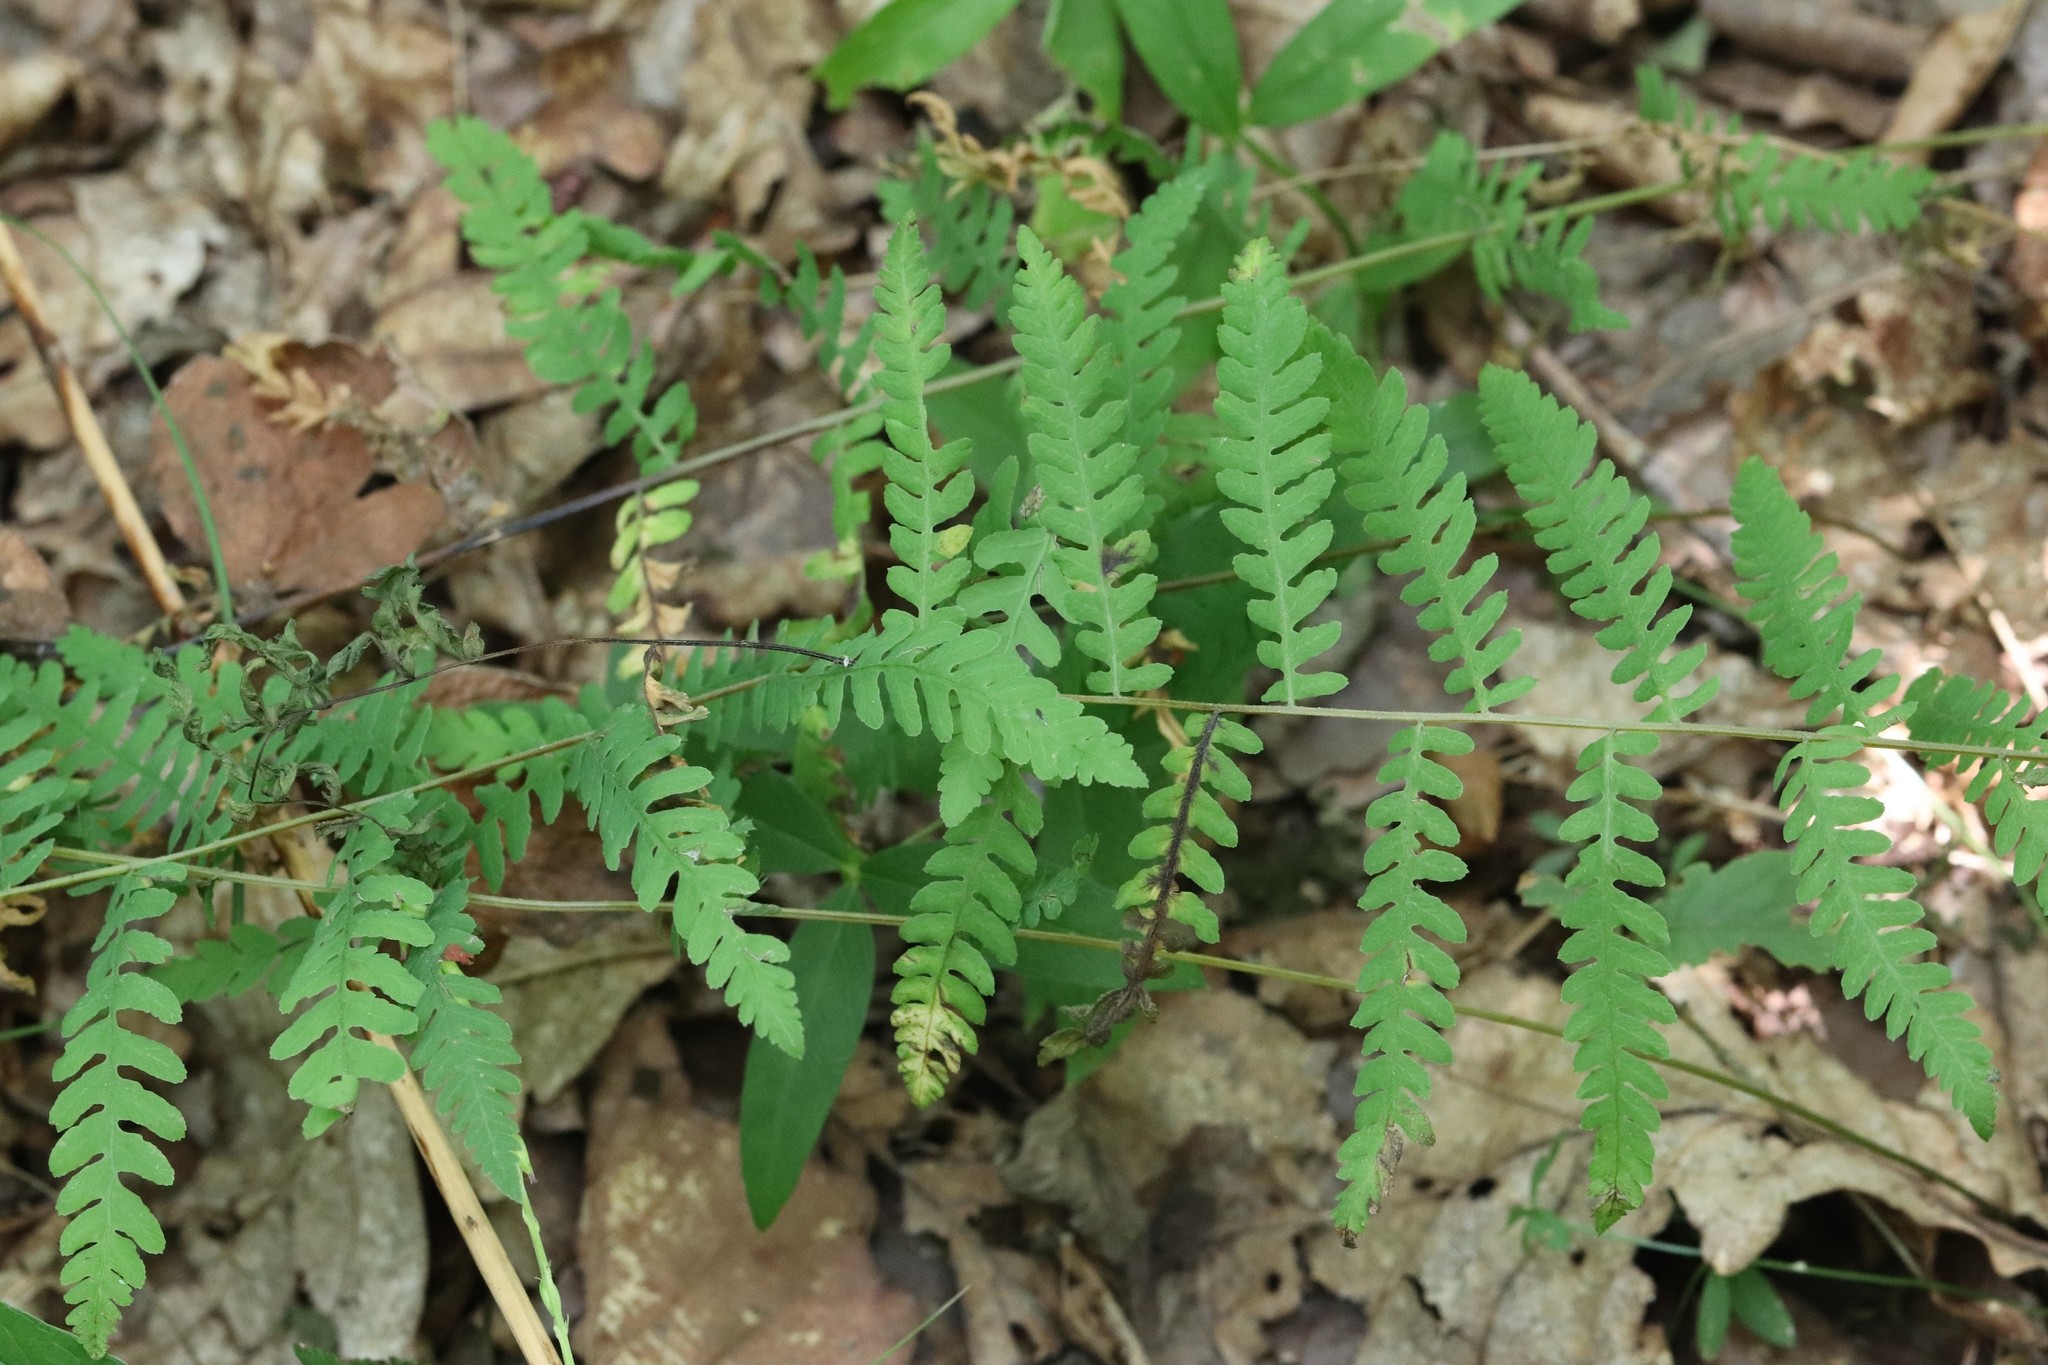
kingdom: Plantae
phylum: Tracheophyta
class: Polypodiopsida
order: Polypodiales
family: Thelypteridaceae
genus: Thelypteris
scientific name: Thelypteris palustris
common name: Marsh fern
